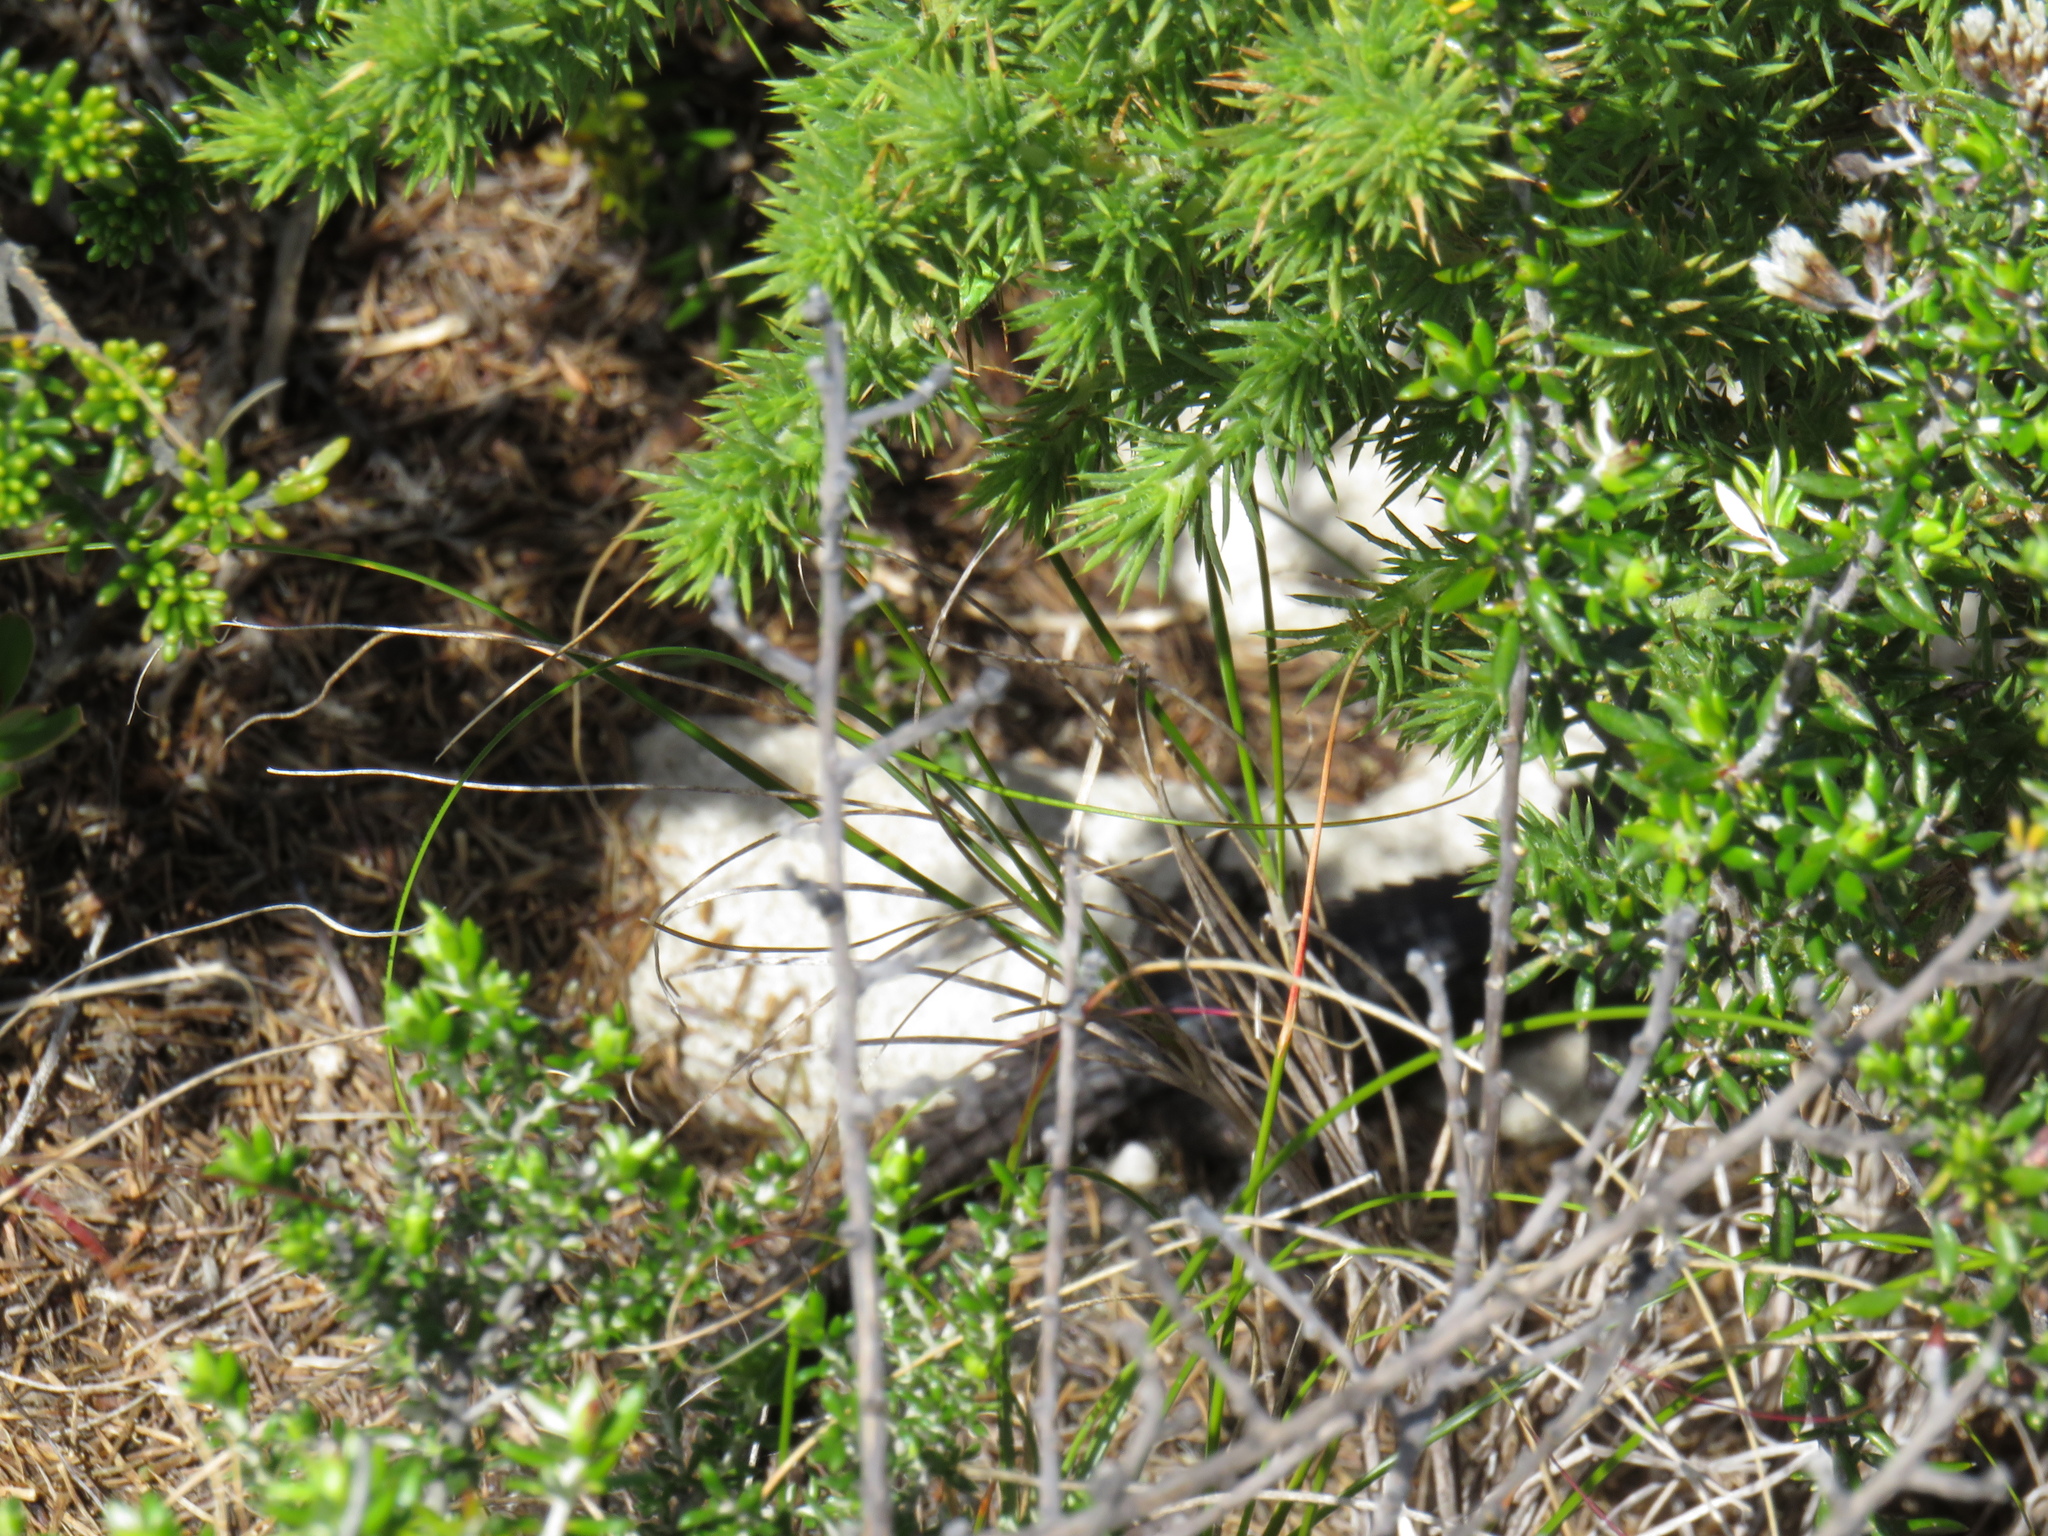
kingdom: Animalia
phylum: Chordata
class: Squamata
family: Cordylidae
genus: Cordylus
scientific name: Cordylus niger
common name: Black girdled lizard
